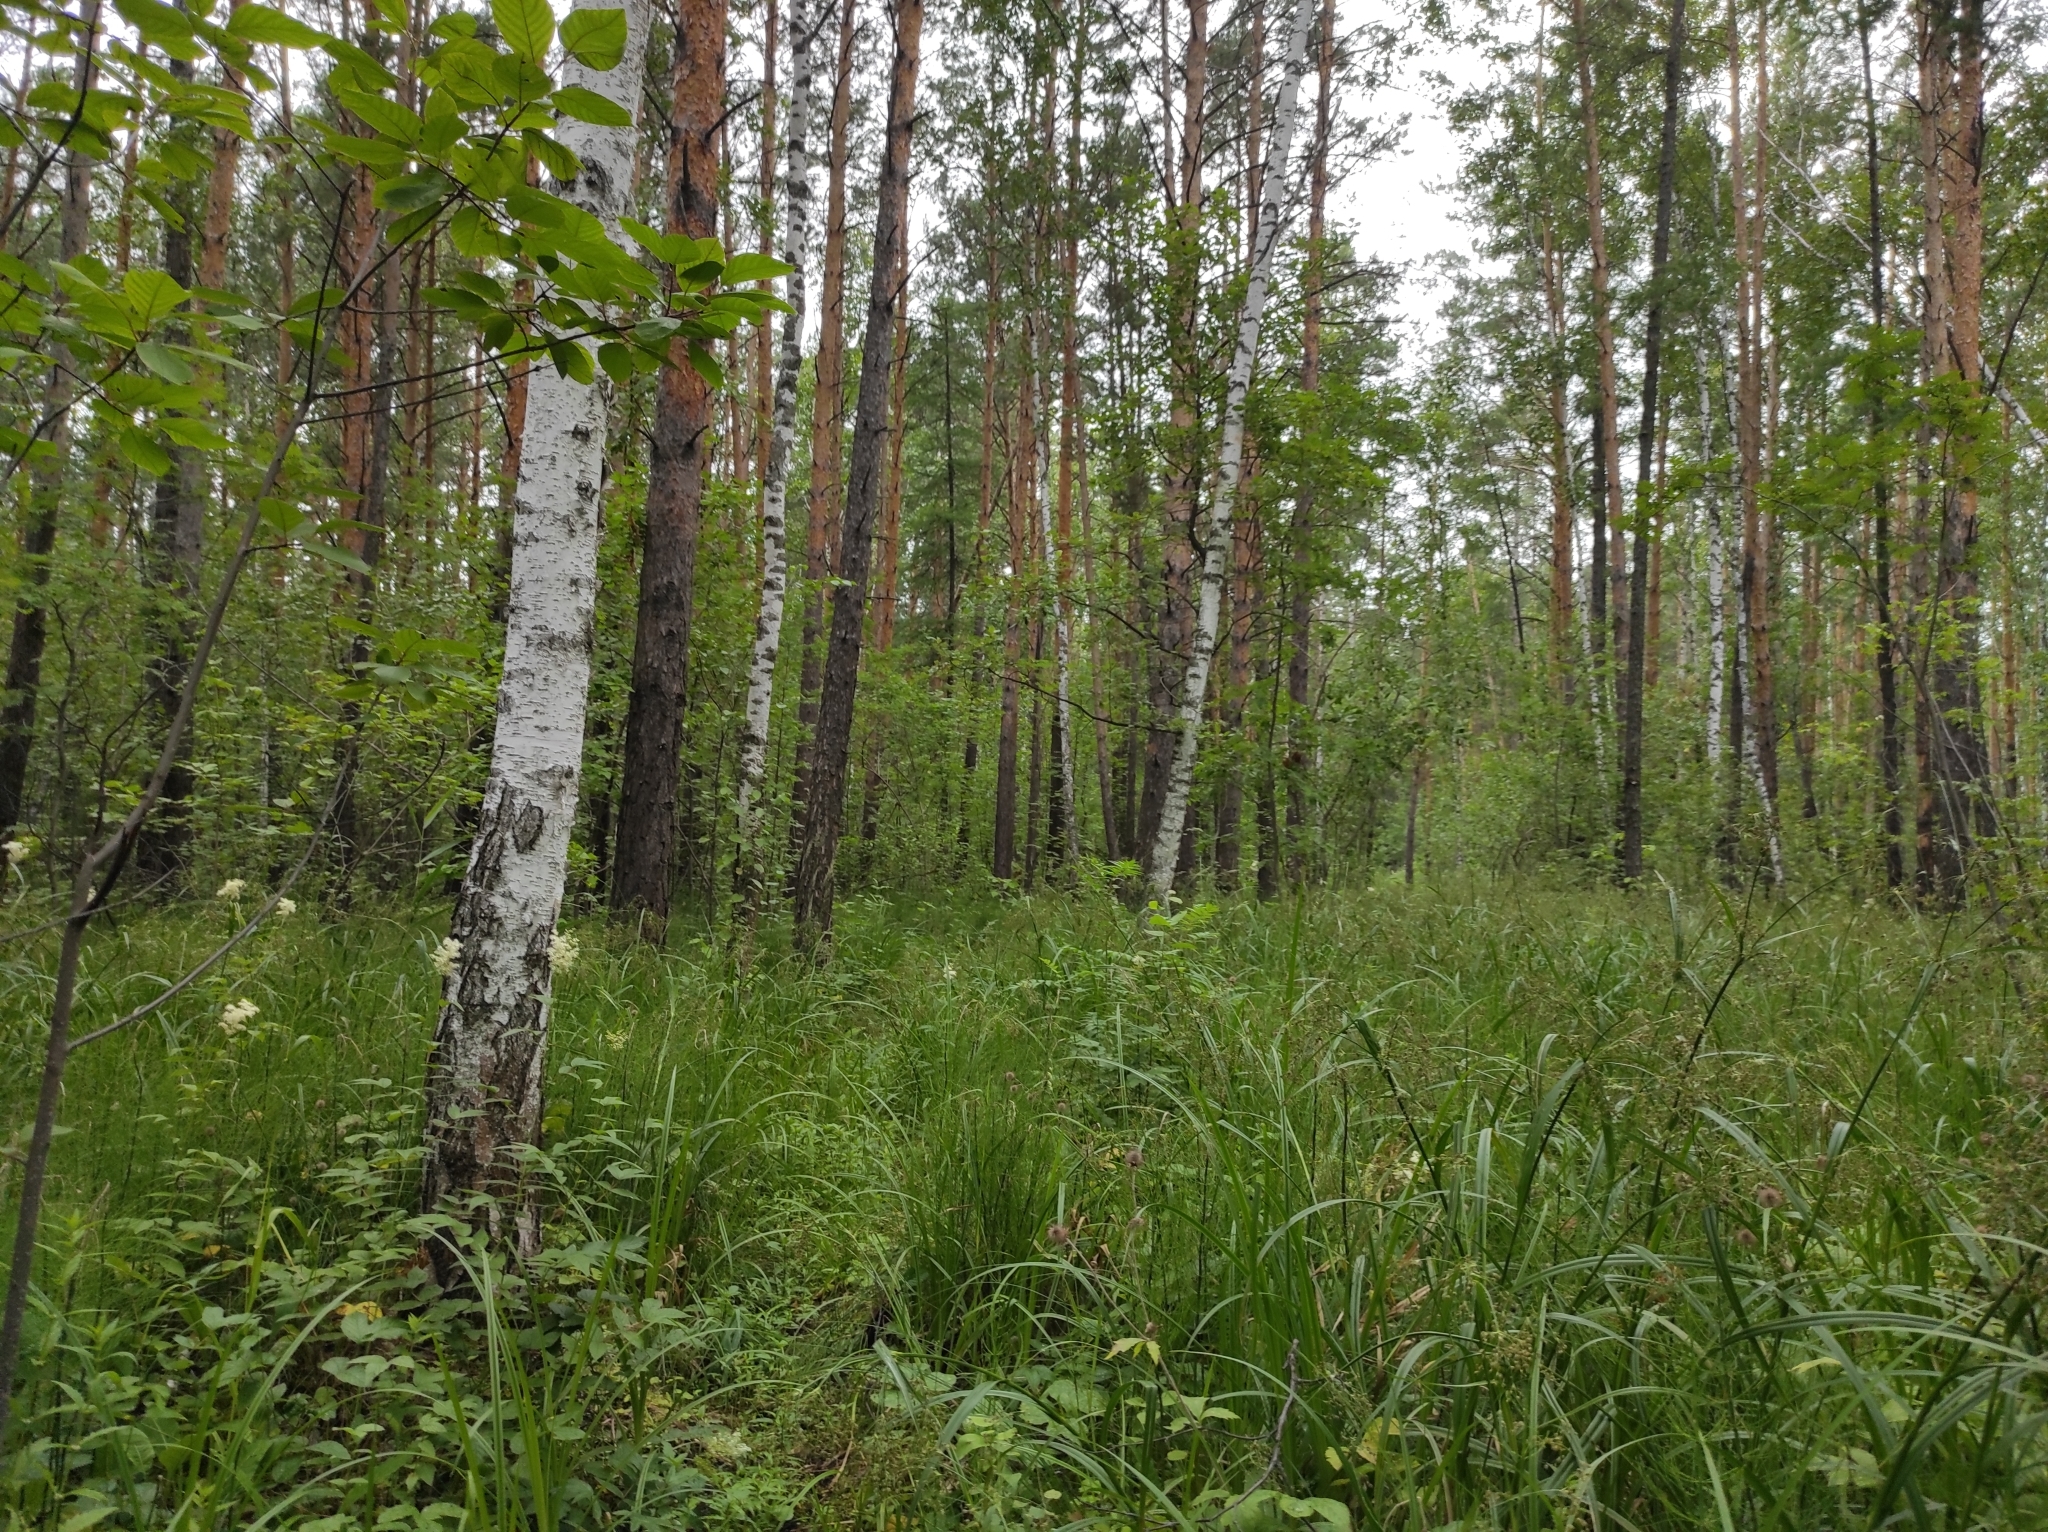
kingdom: Plantae
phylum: Tracheophyta
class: Pinopsida
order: Pinales
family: Pinaceae
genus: Pinus
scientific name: Pinus sylvestris
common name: Scots pine
